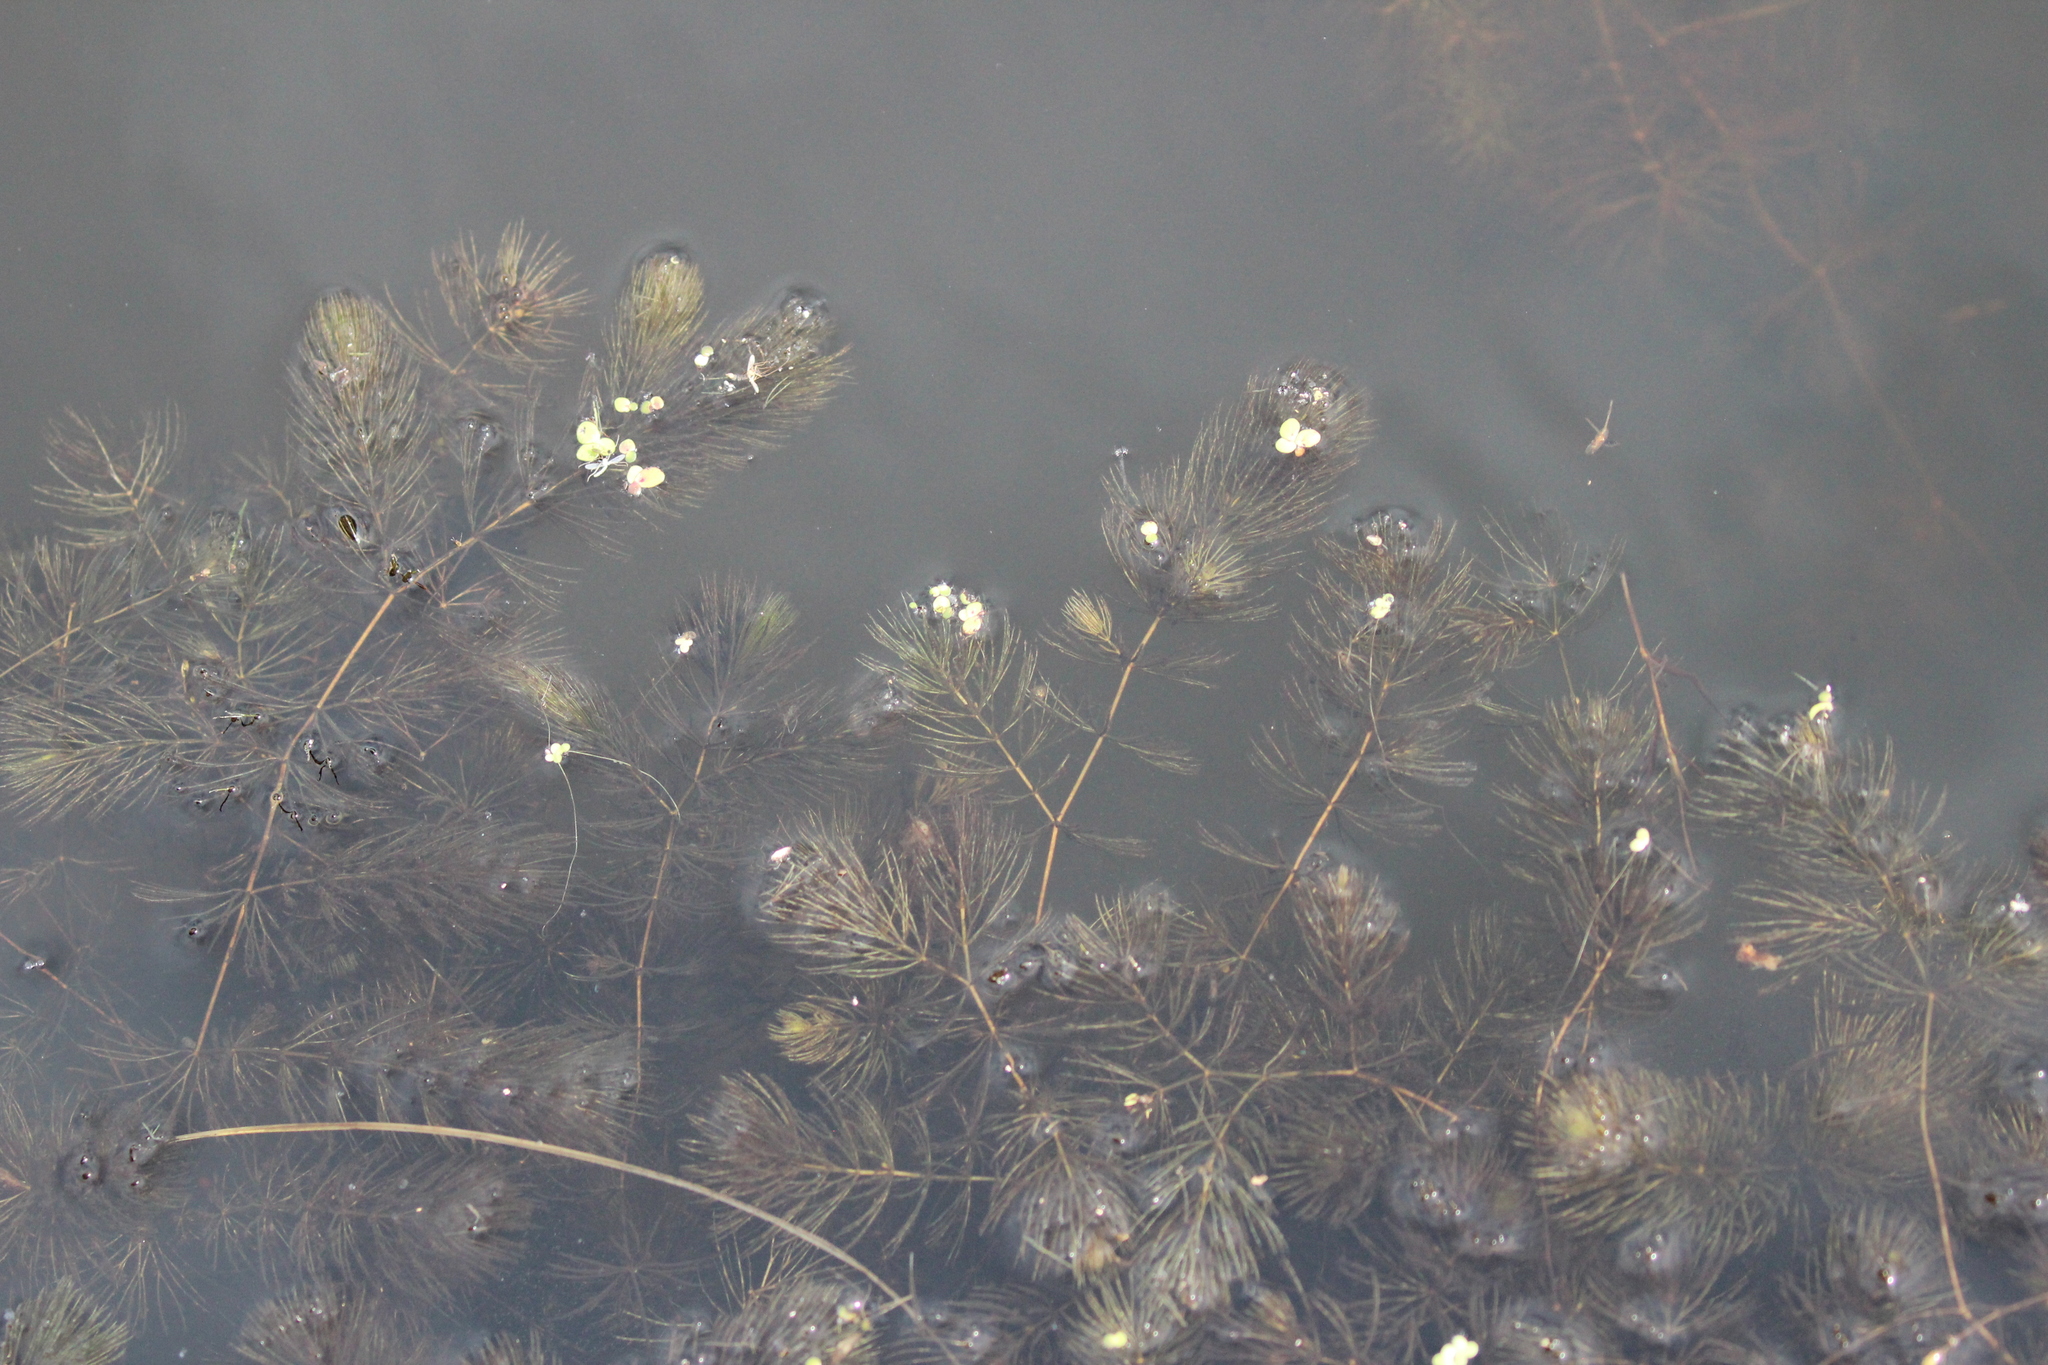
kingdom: Plantae
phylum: Tracheophyta
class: Magnoliopsida
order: Ceratophyllales
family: Ceratophyllaceae
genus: Ceratophyllum
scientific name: Ceratophyllum demersum
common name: Rigid hornwort
